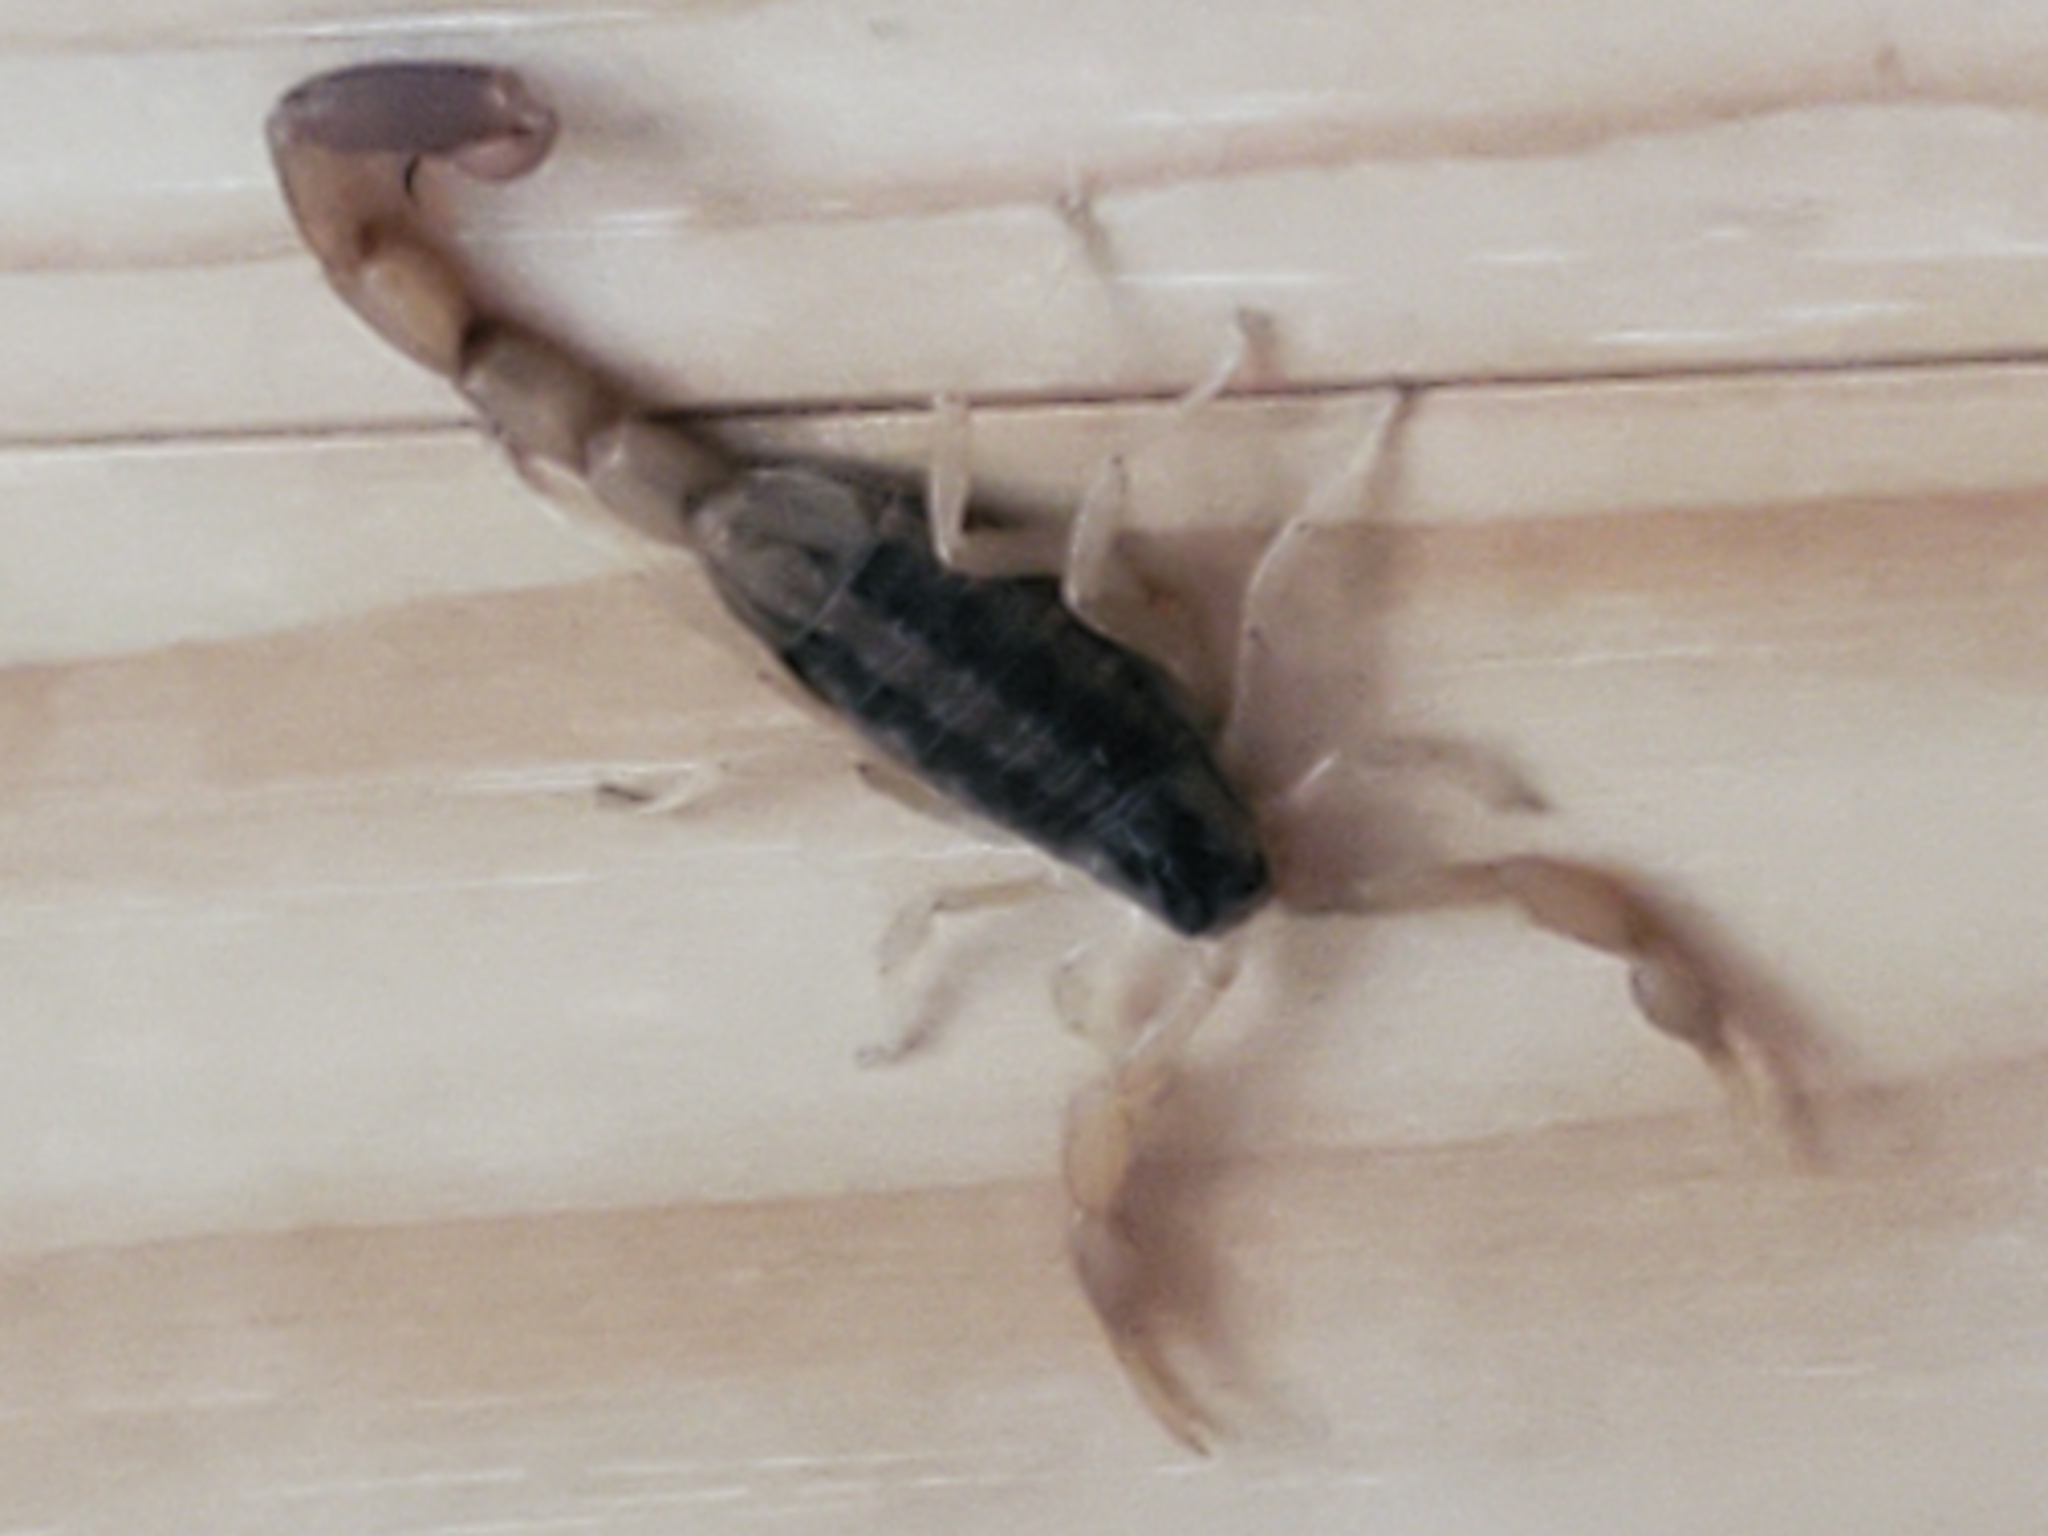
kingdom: Animalia
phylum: Arthropoda
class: Arachnida
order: Scorpiones
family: Buthidae
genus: Centruroides
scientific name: Centruroides vittatus
